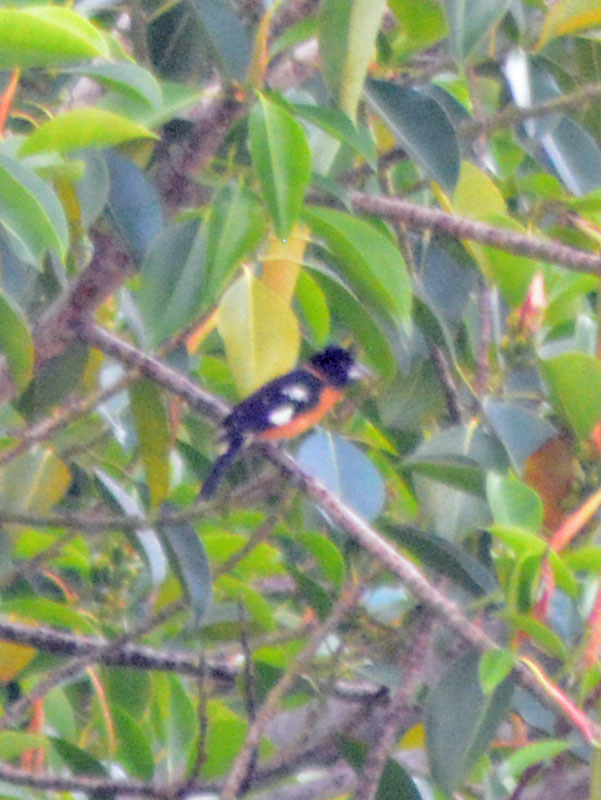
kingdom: Animalia
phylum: Chordata
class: Aves
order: Passeriformes
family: Cardinalidae
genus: Pheucticus
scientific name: Pheucticus melanocephalus
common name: Black-headed grosbeak
